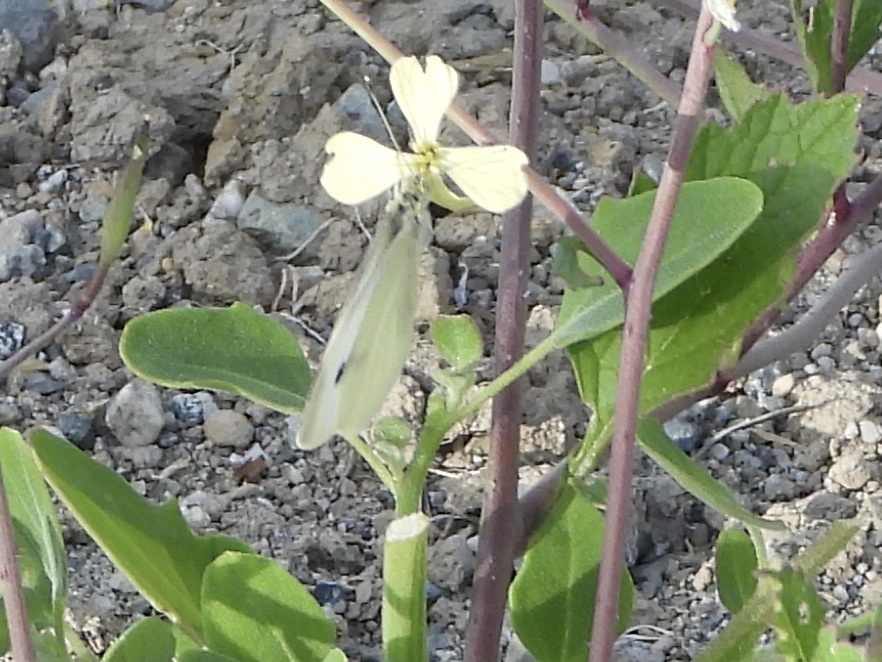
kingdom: Animalia
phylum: Arthropoda
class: Insecta
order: Lepidoptera
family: Pieridae
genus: Pieris
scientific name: Pieris rapae
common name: Small white
